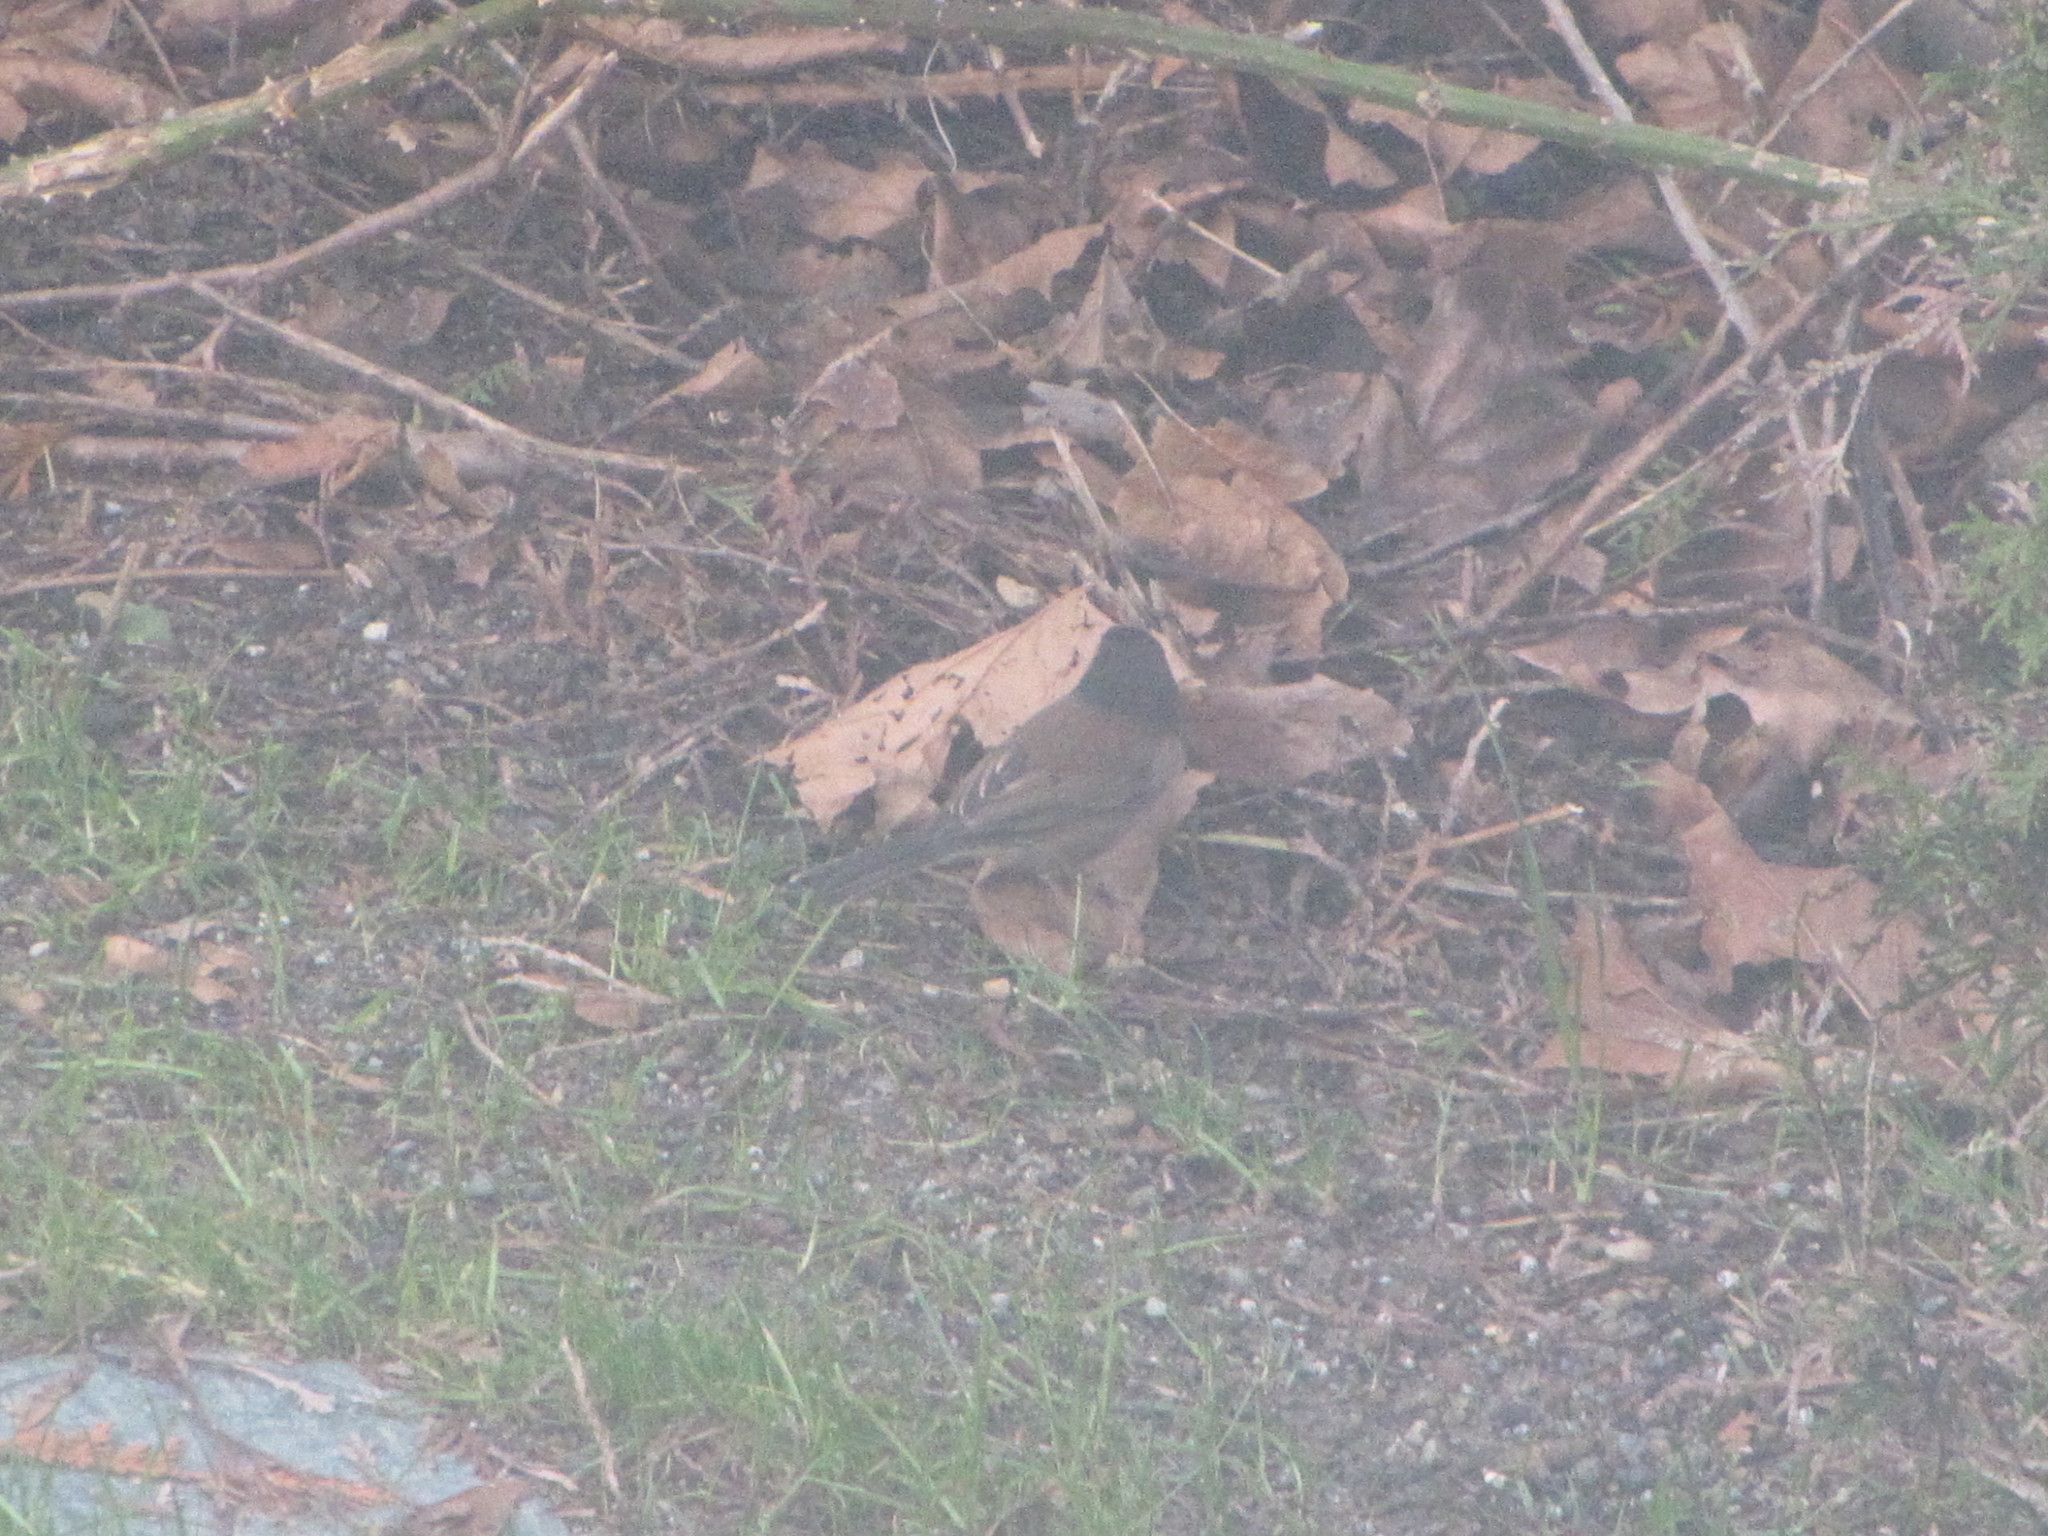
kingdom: Animalia
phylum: Chordata
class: Aves
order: Passeriformes
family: Passerellidae
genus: Junco
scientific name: Junco hyemalis
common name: Dark-eyed junco
